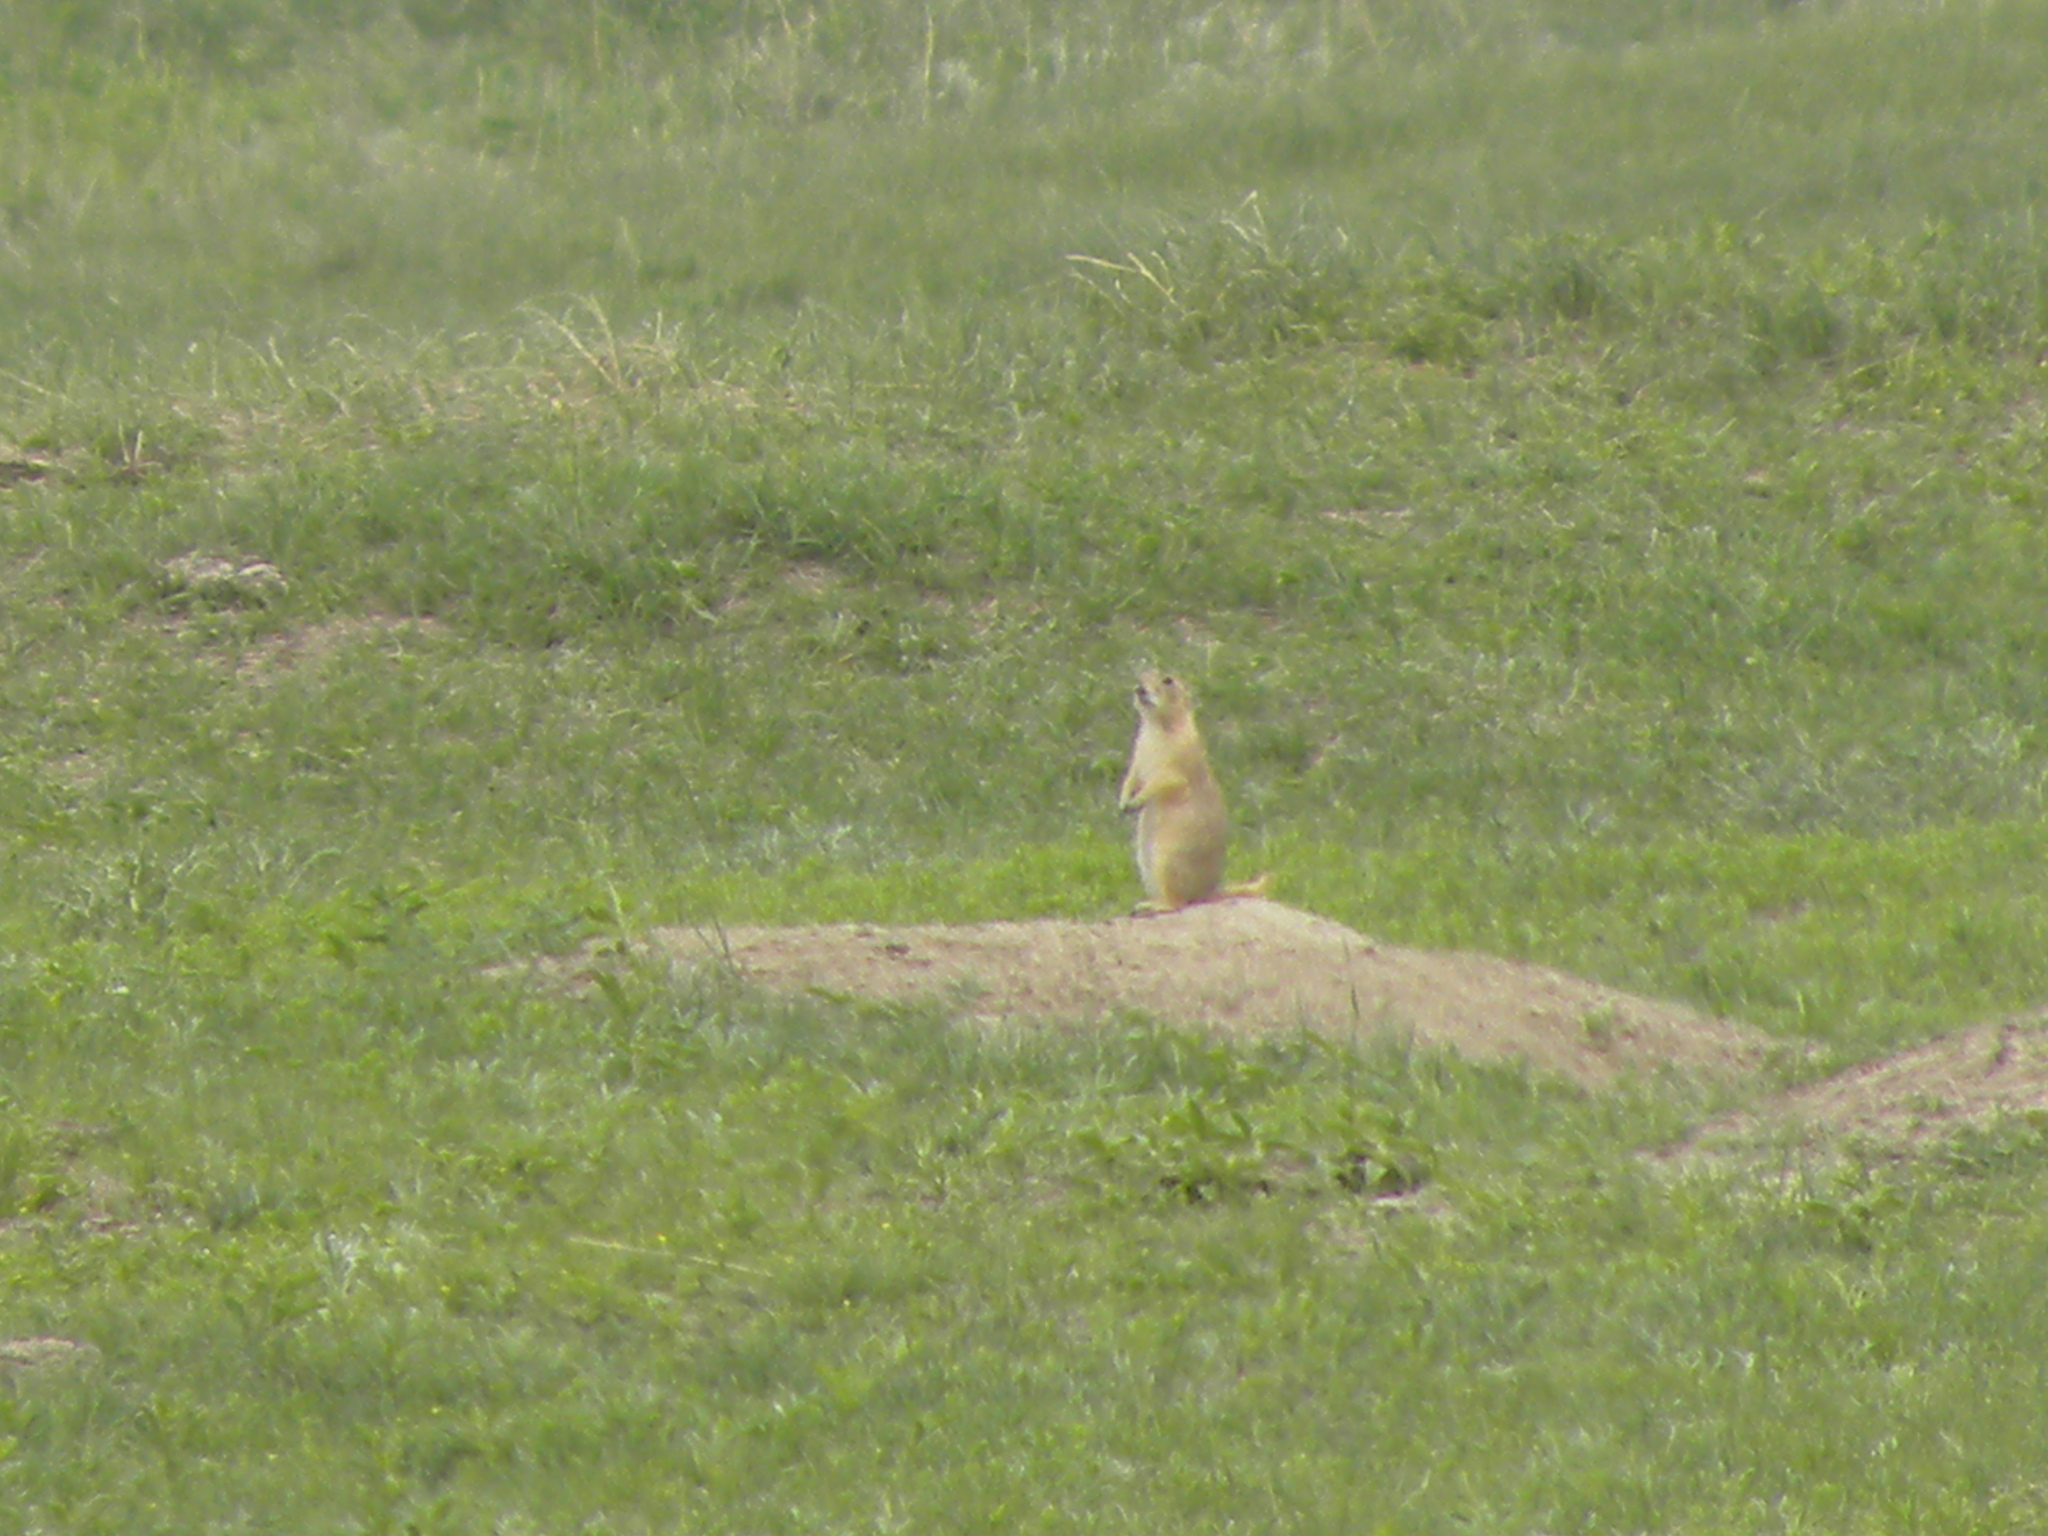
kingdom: Animalia
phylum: Chordata
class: Mammalia
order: Rodentia
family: Sciuridae
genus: Cynomys
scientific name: Cynomys ludovicianus
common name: Black-tailed prairie dog
